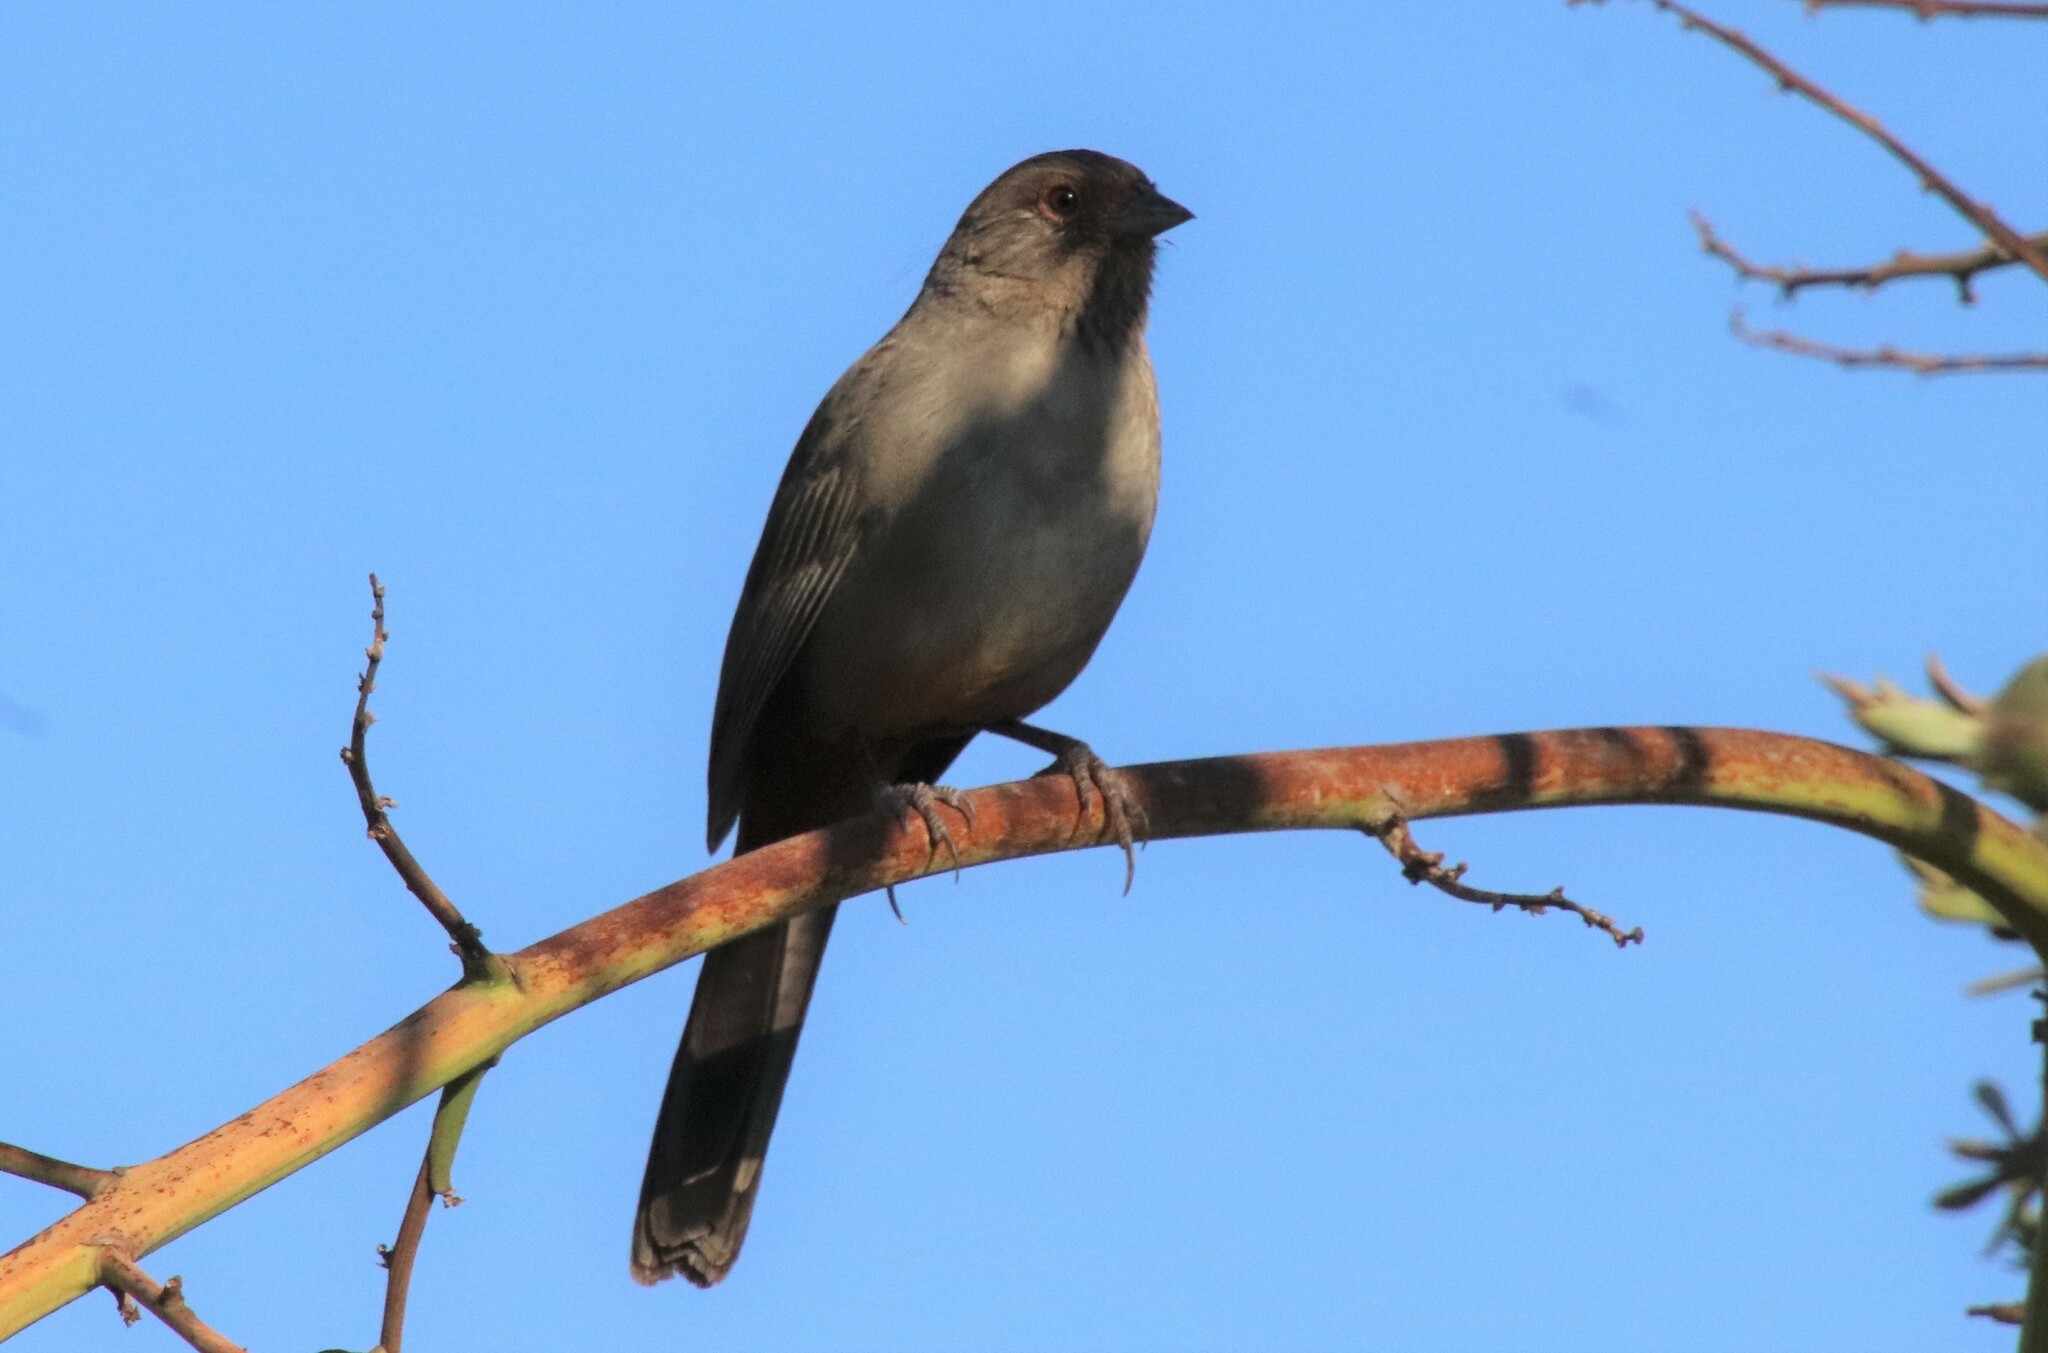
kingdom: Animalia
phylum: Chordata
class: Aves
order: Passeriformes
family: Passerellidae
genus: Melozone
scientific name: Melozone crissalis
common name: California towhee
